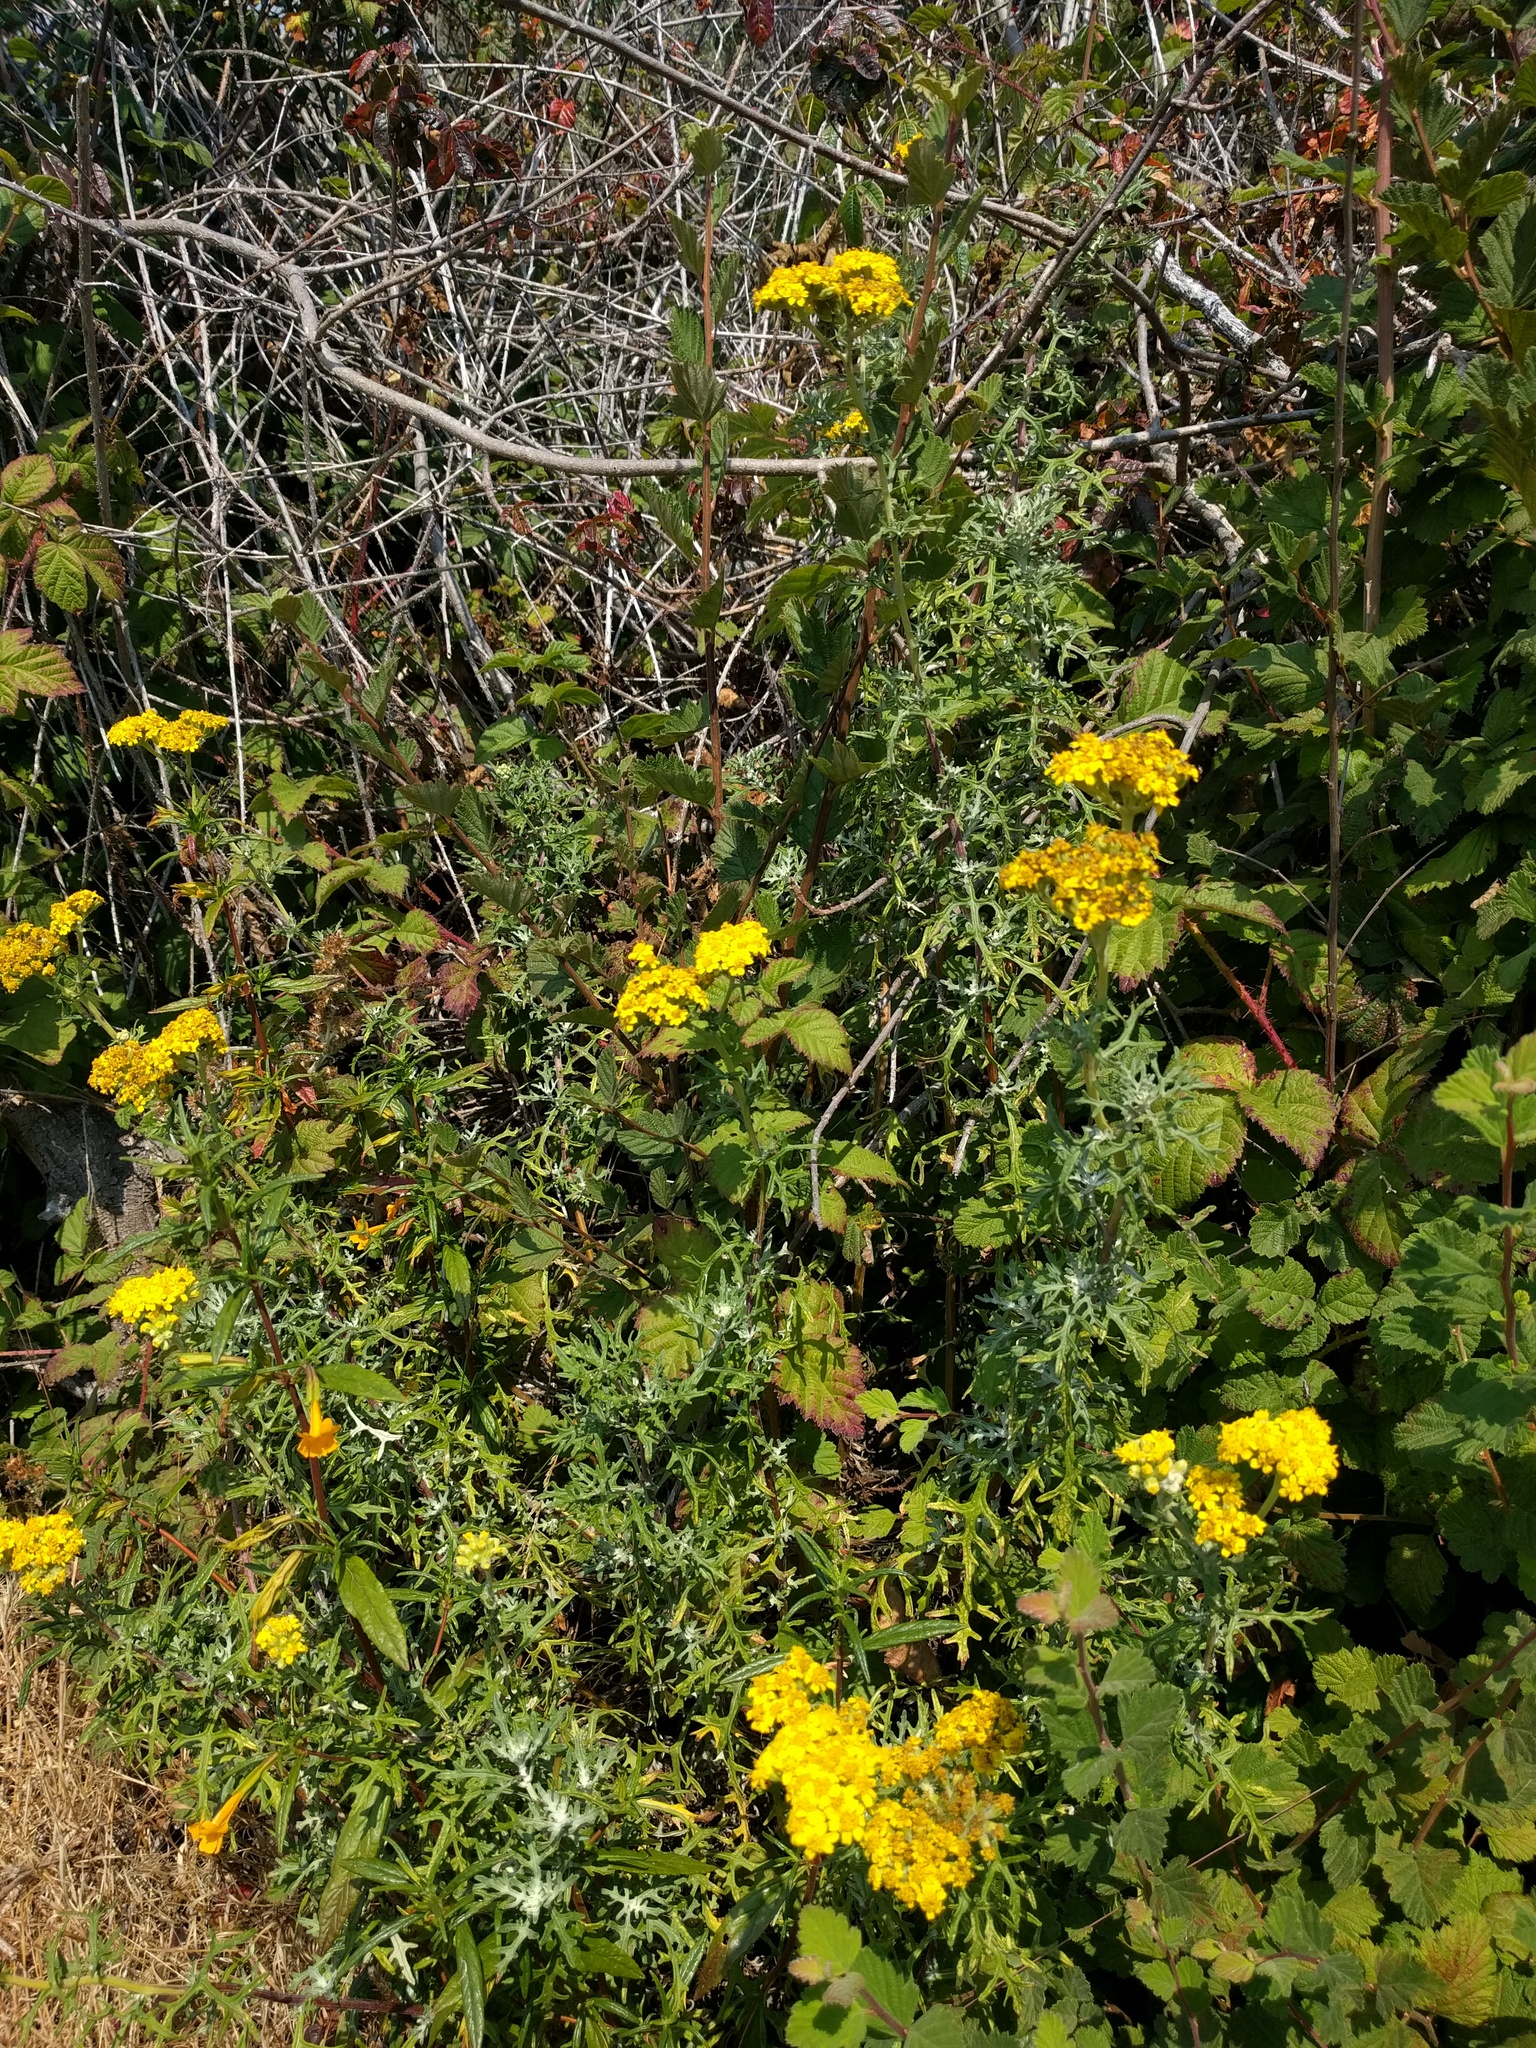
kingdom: Plantae
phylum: Tracheophyta
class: Magnoliopsida
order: Asterales
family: Asteraceae
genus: Eriophyllum
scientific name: Eriophyllum staechadifolium
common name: Lizardtail
